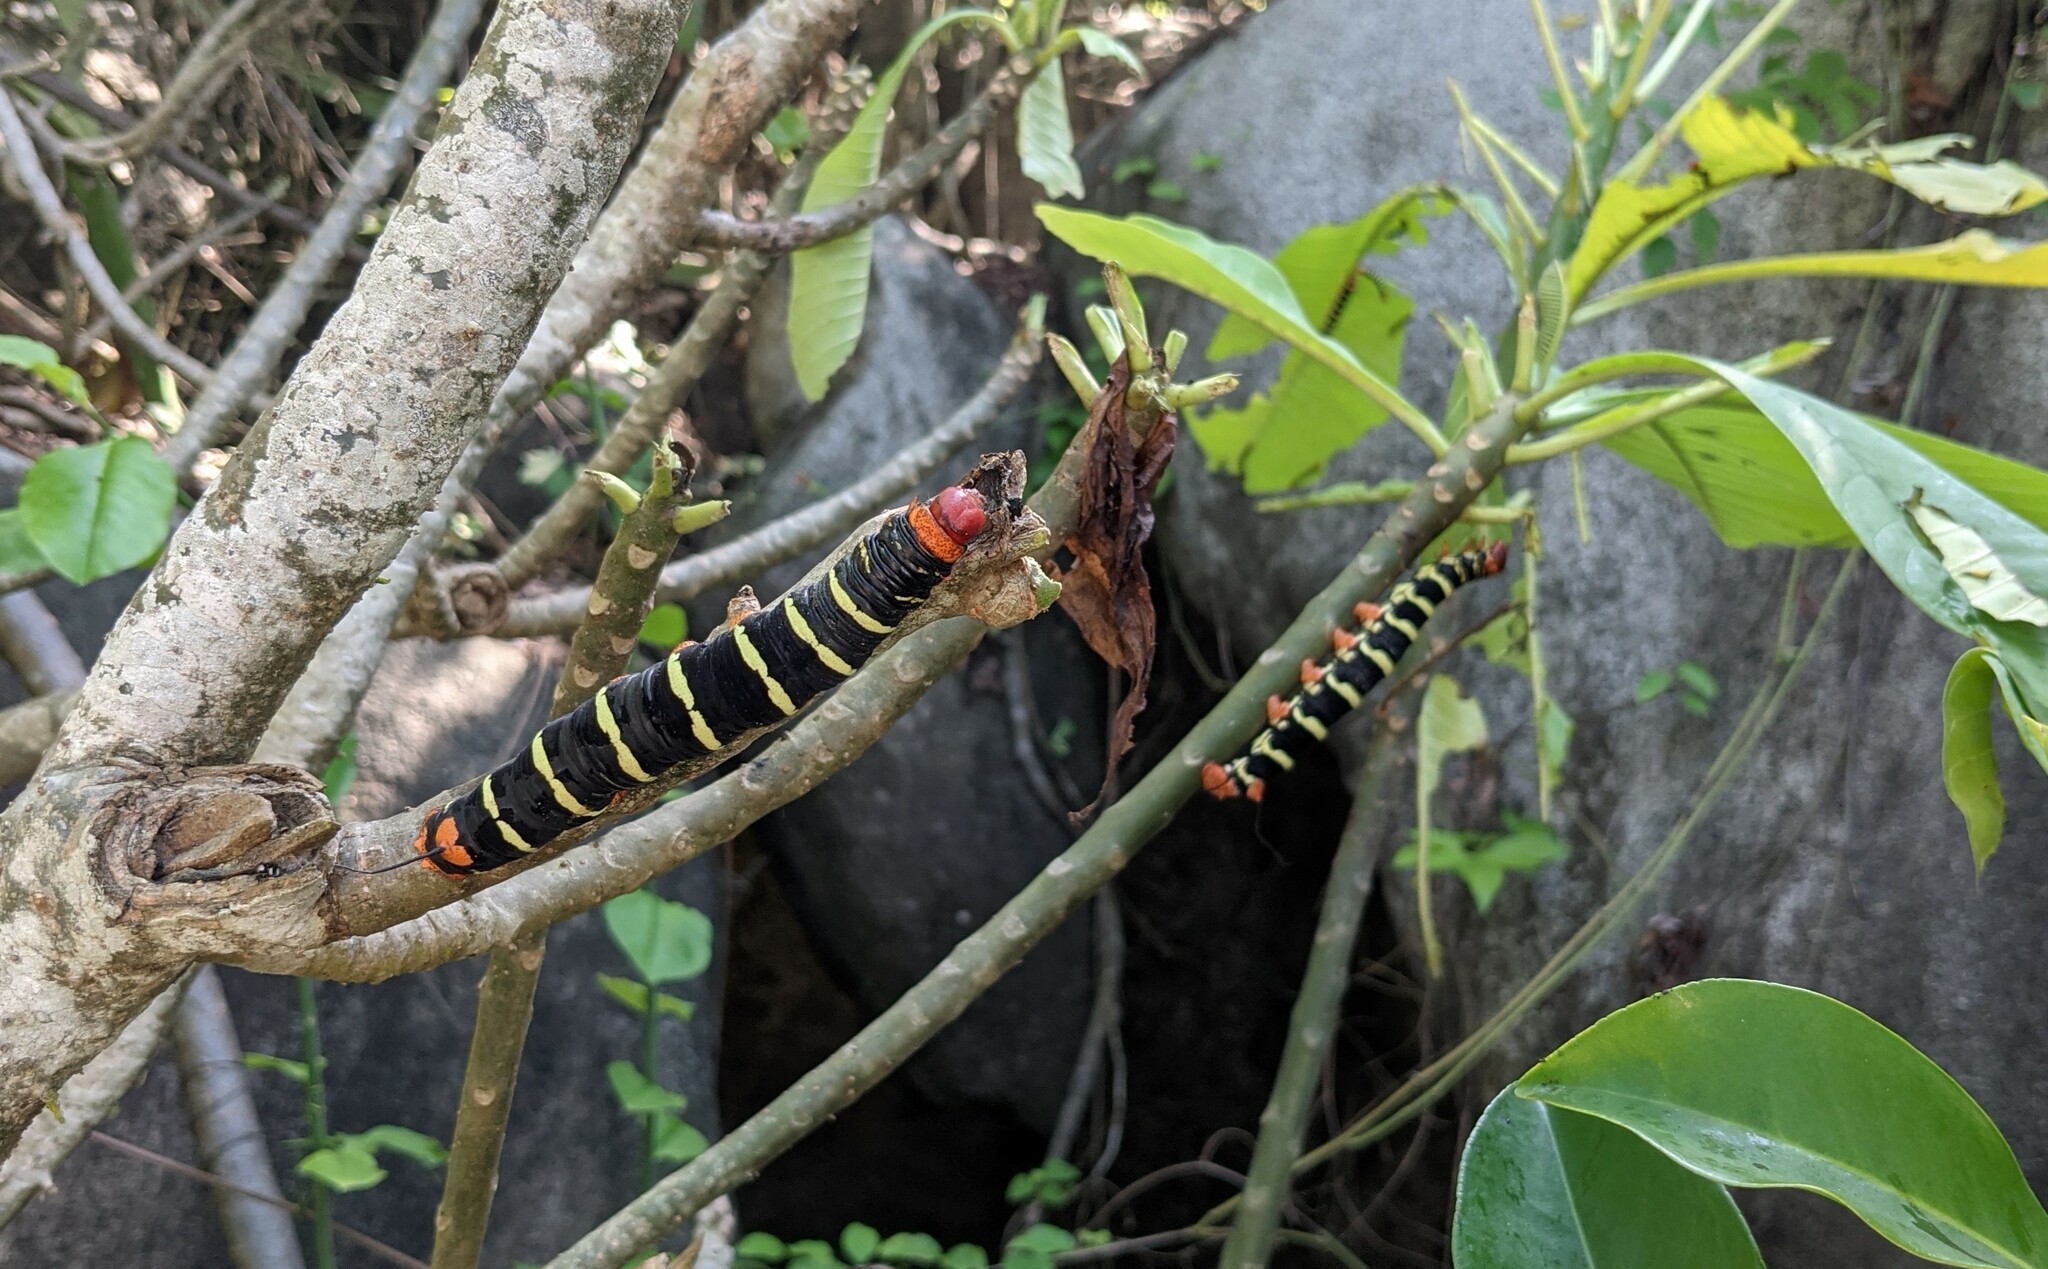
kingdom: Animalia
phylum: Arthropoda
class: Insecta
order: Lepidoptera
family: Sphingidae
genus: Pseudosphinx
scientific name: Pseudosphinx tetrio
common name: Tetrio sphinx
